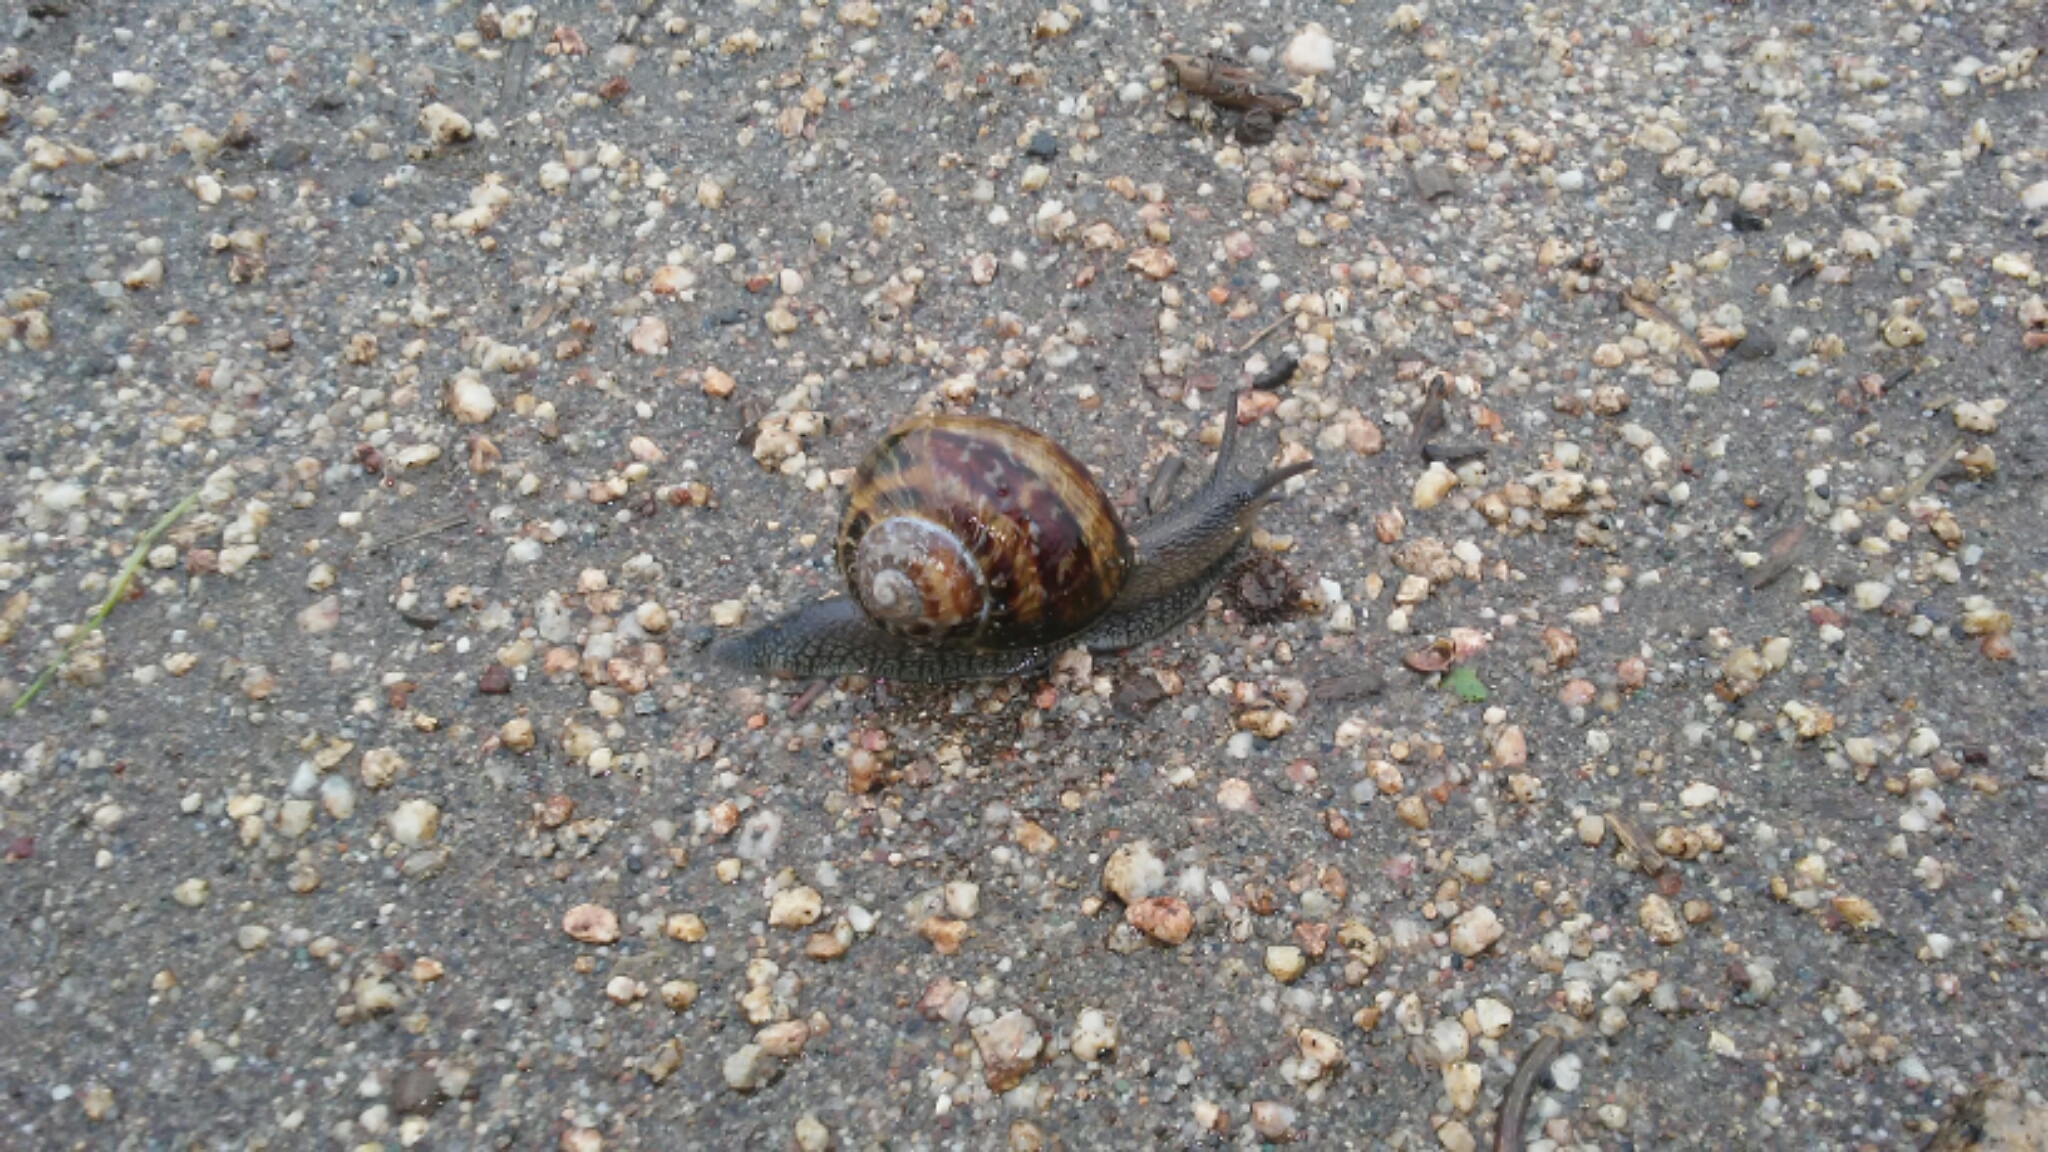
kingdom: Animalia
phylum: Mollusca
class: Gastropoda
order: Stylommatophora
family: Helicidae
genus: Cornu
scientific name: Cornu aspersum
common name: Brown garden snail
